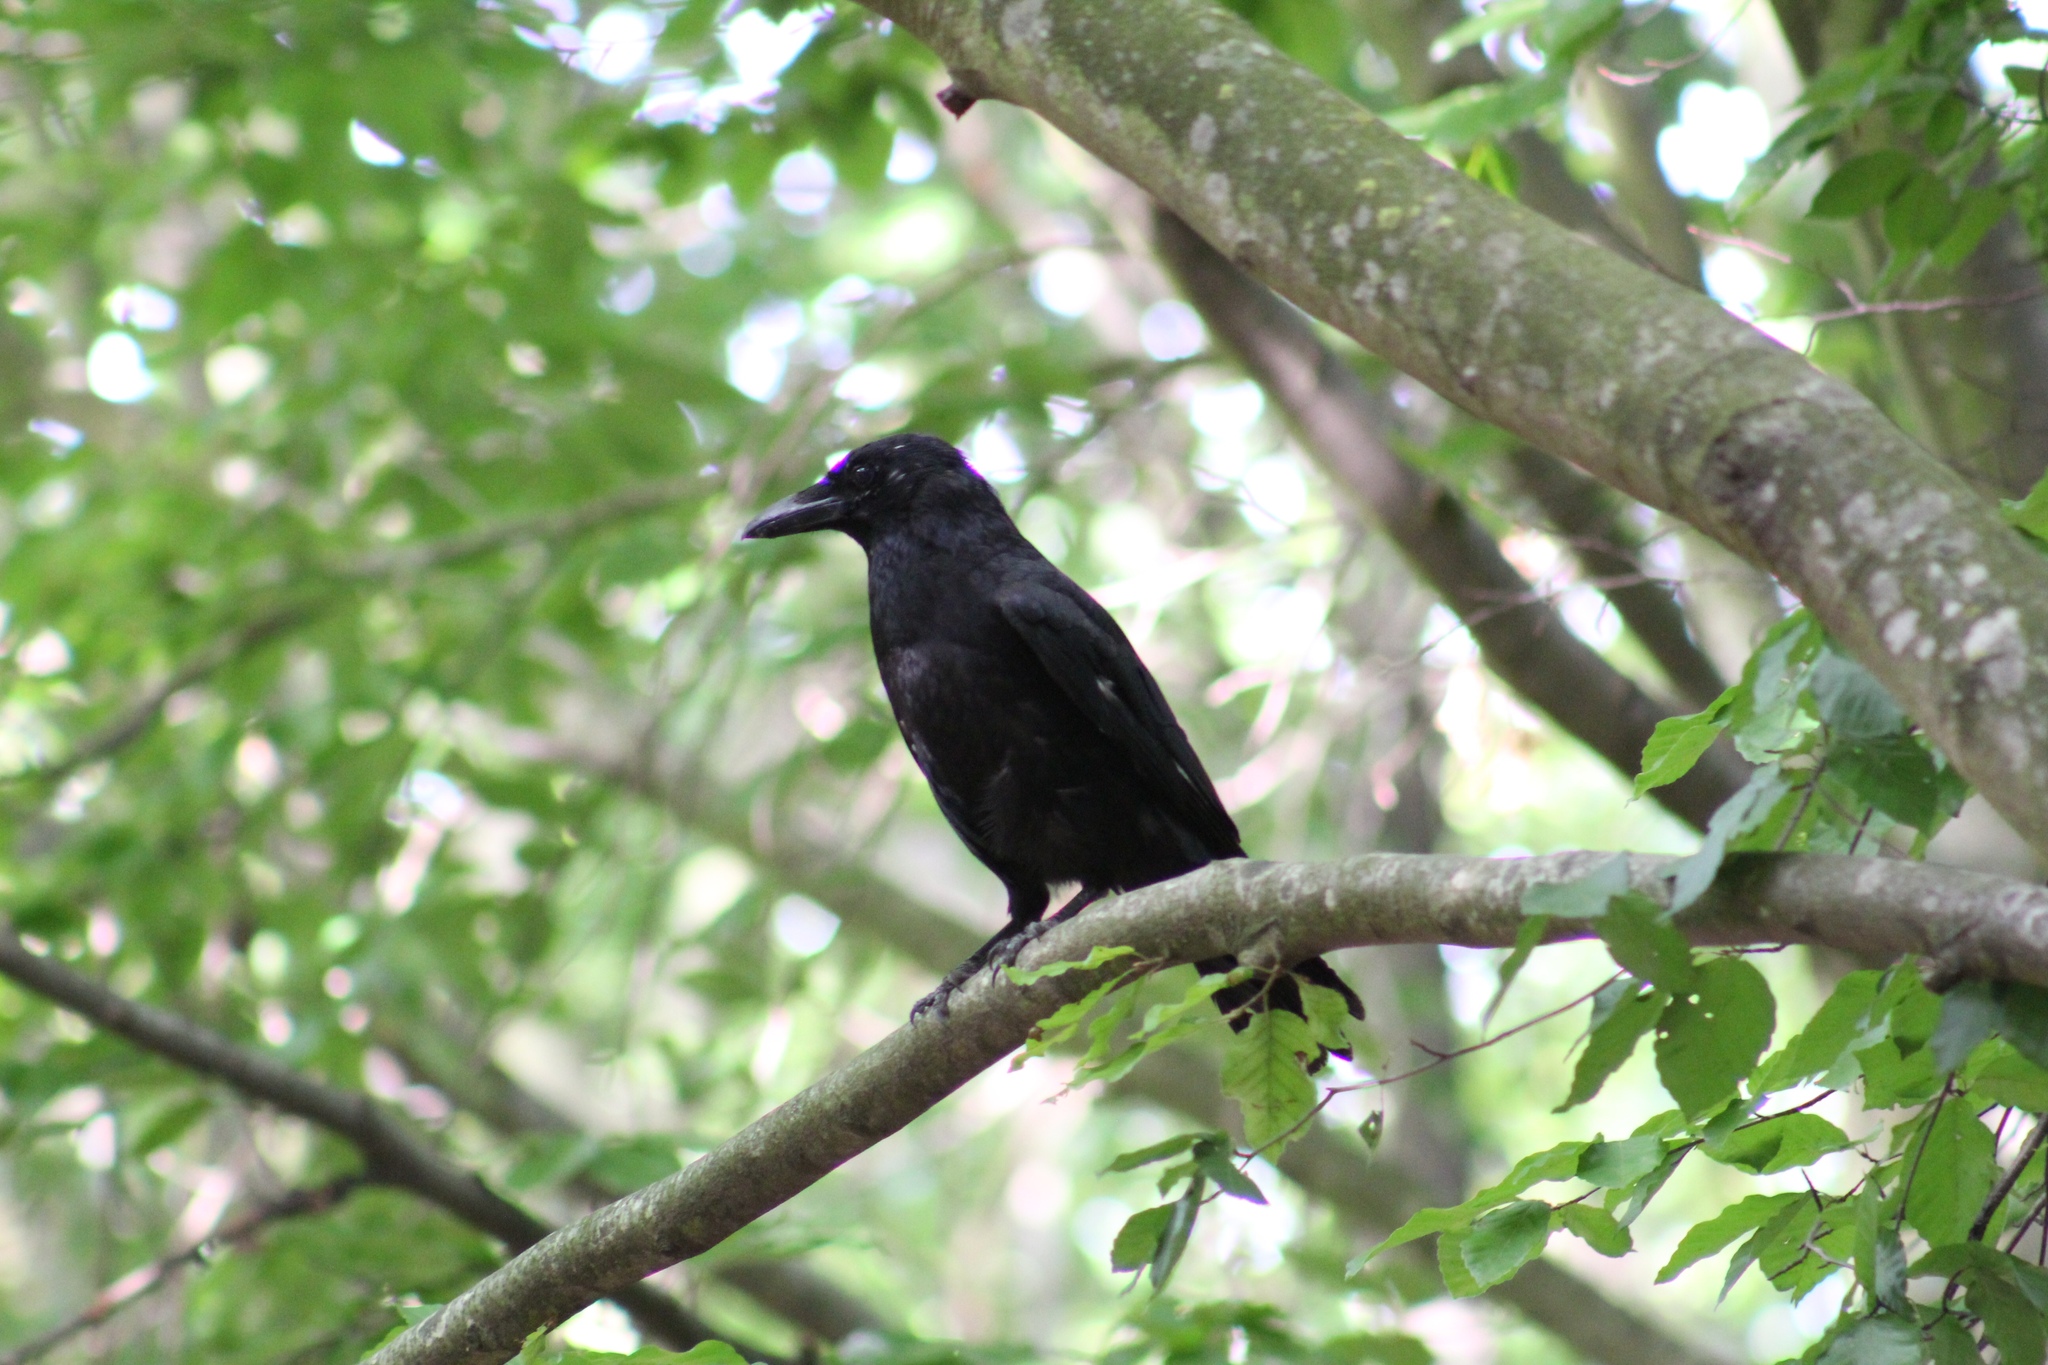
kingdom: Animalia
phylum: Chordata
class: Aves
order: Passeriformes
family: Corvidae
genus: Corvus
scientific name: Corvus corone
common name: Carrion crow
